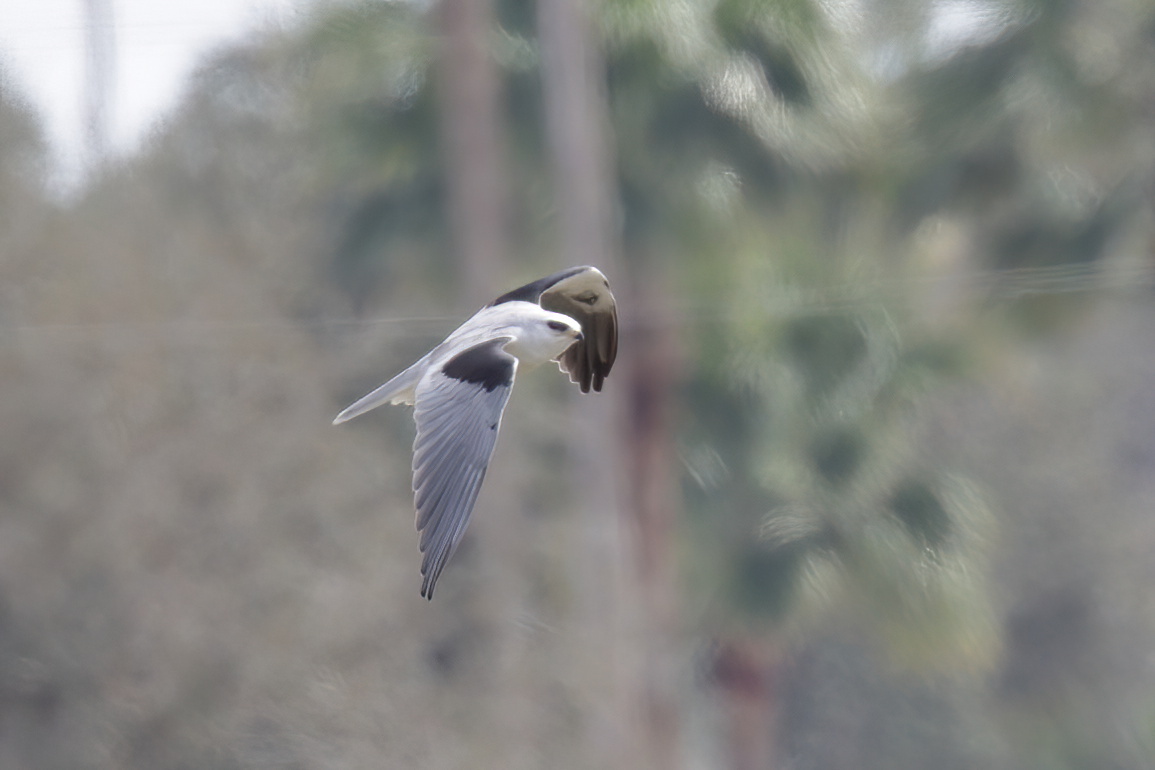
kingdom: Animalia
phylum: Chordata
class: Aves
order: Accipitriformes
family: Accipitridae
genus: Elanus
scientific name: Elanus leucurus
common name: White-tailed kite
